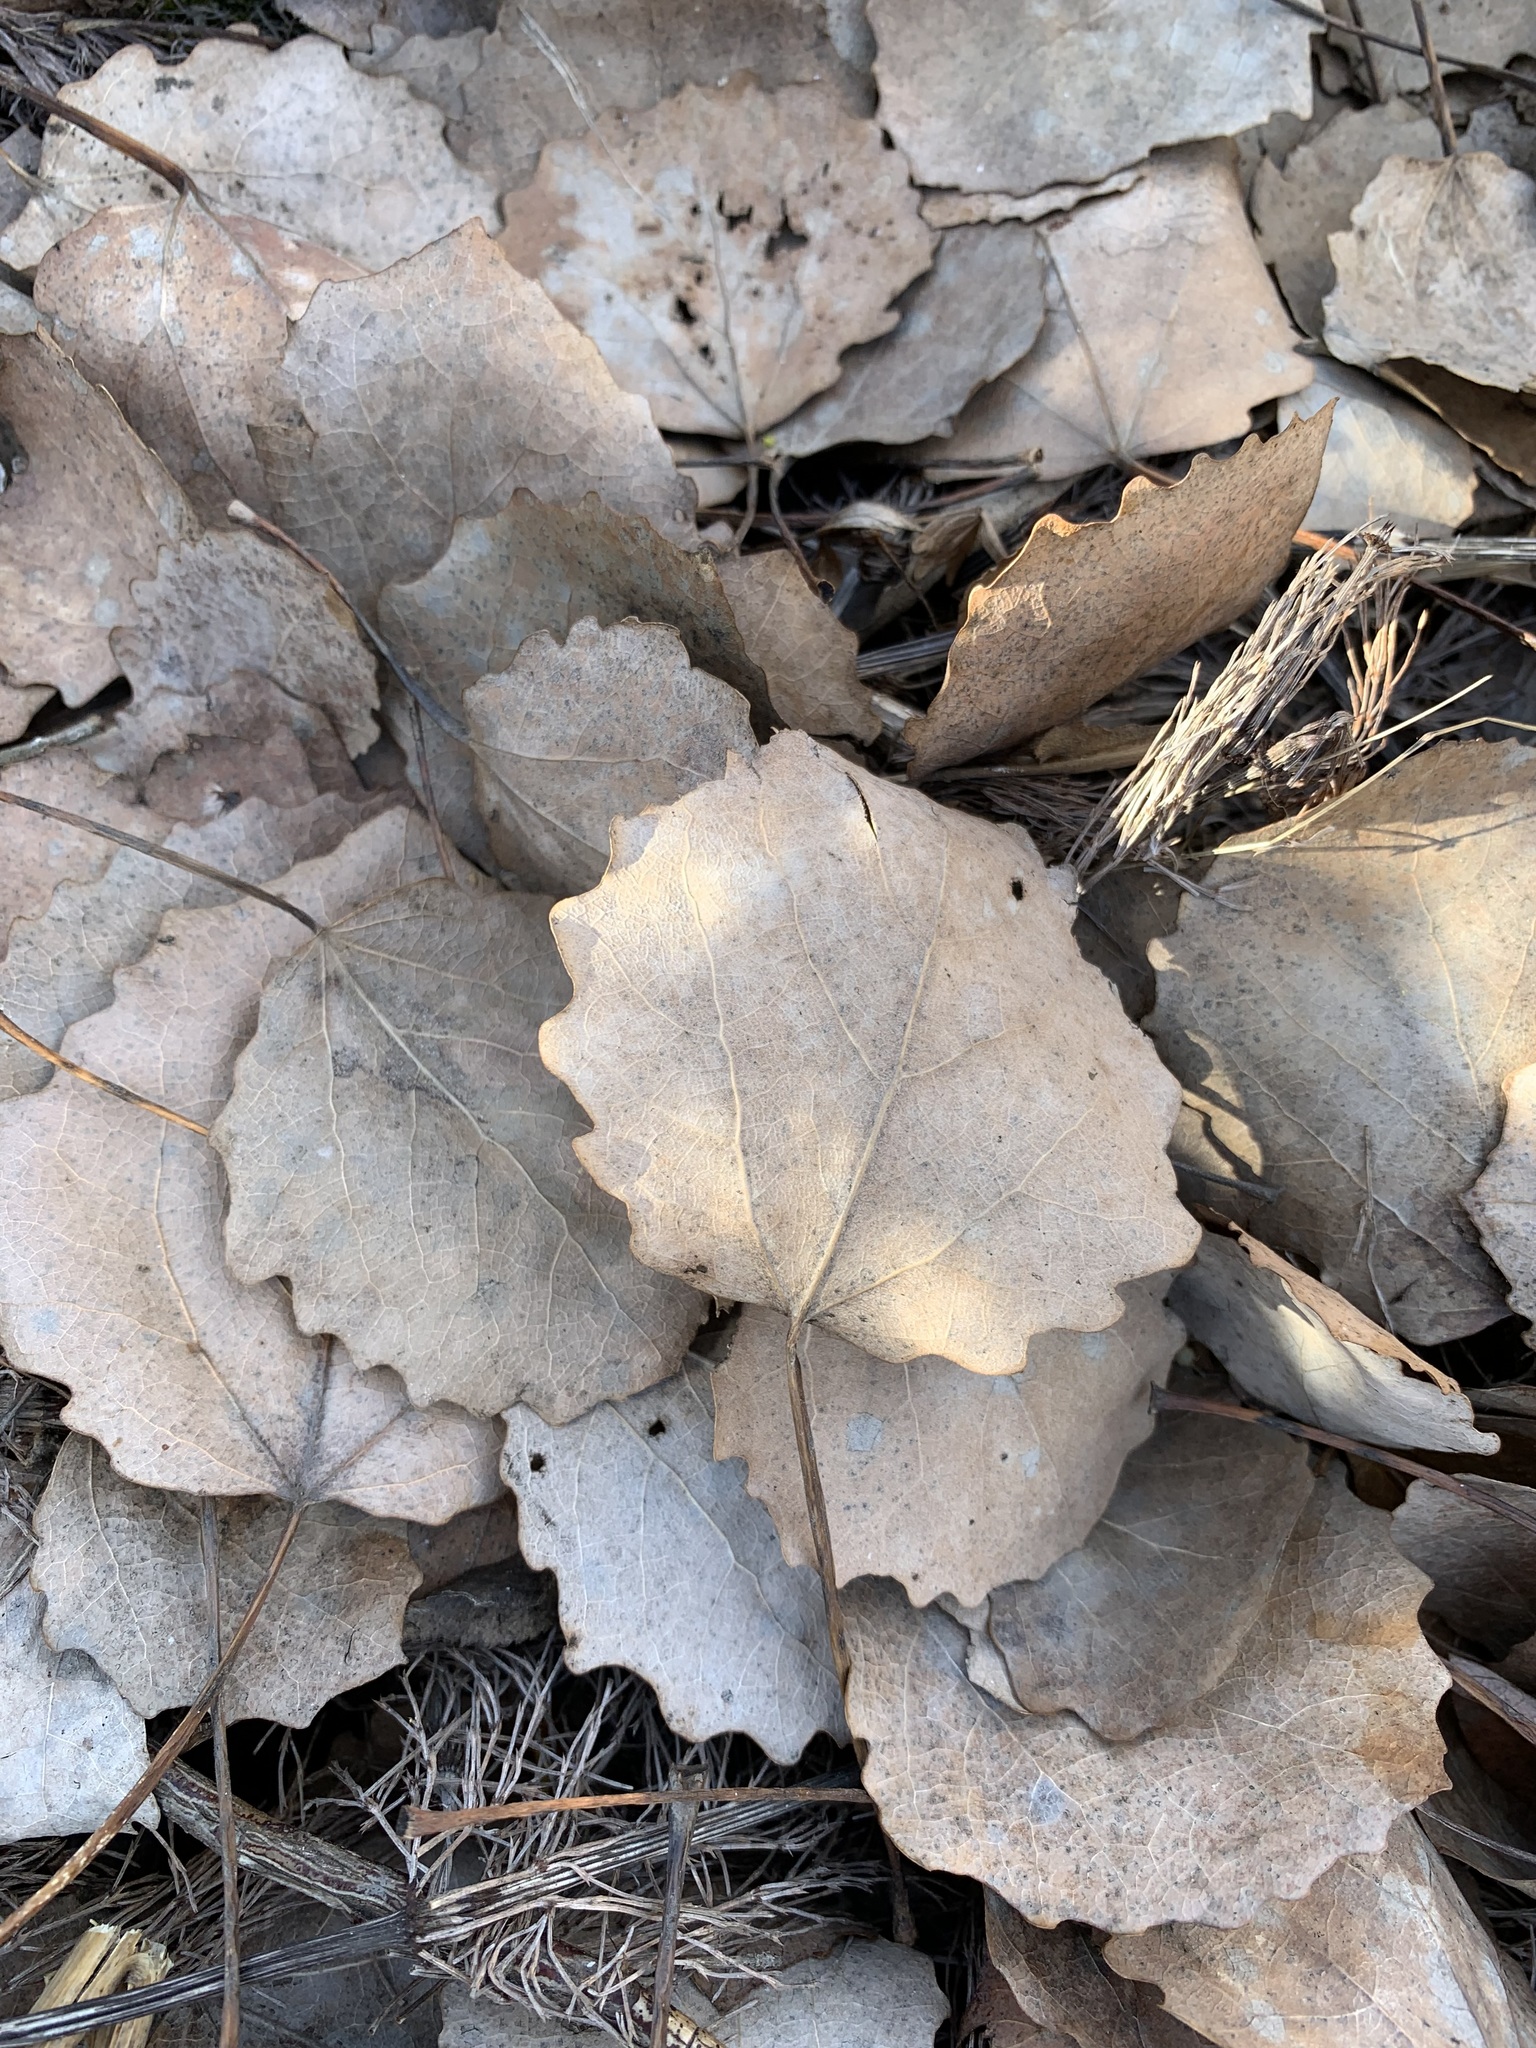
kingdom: Plantae
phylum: Tracheophyta
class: Magnoliopsida
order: Malpighiales
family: Salicaceae
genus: Populus
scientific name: Populus tremula
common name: European aspen
